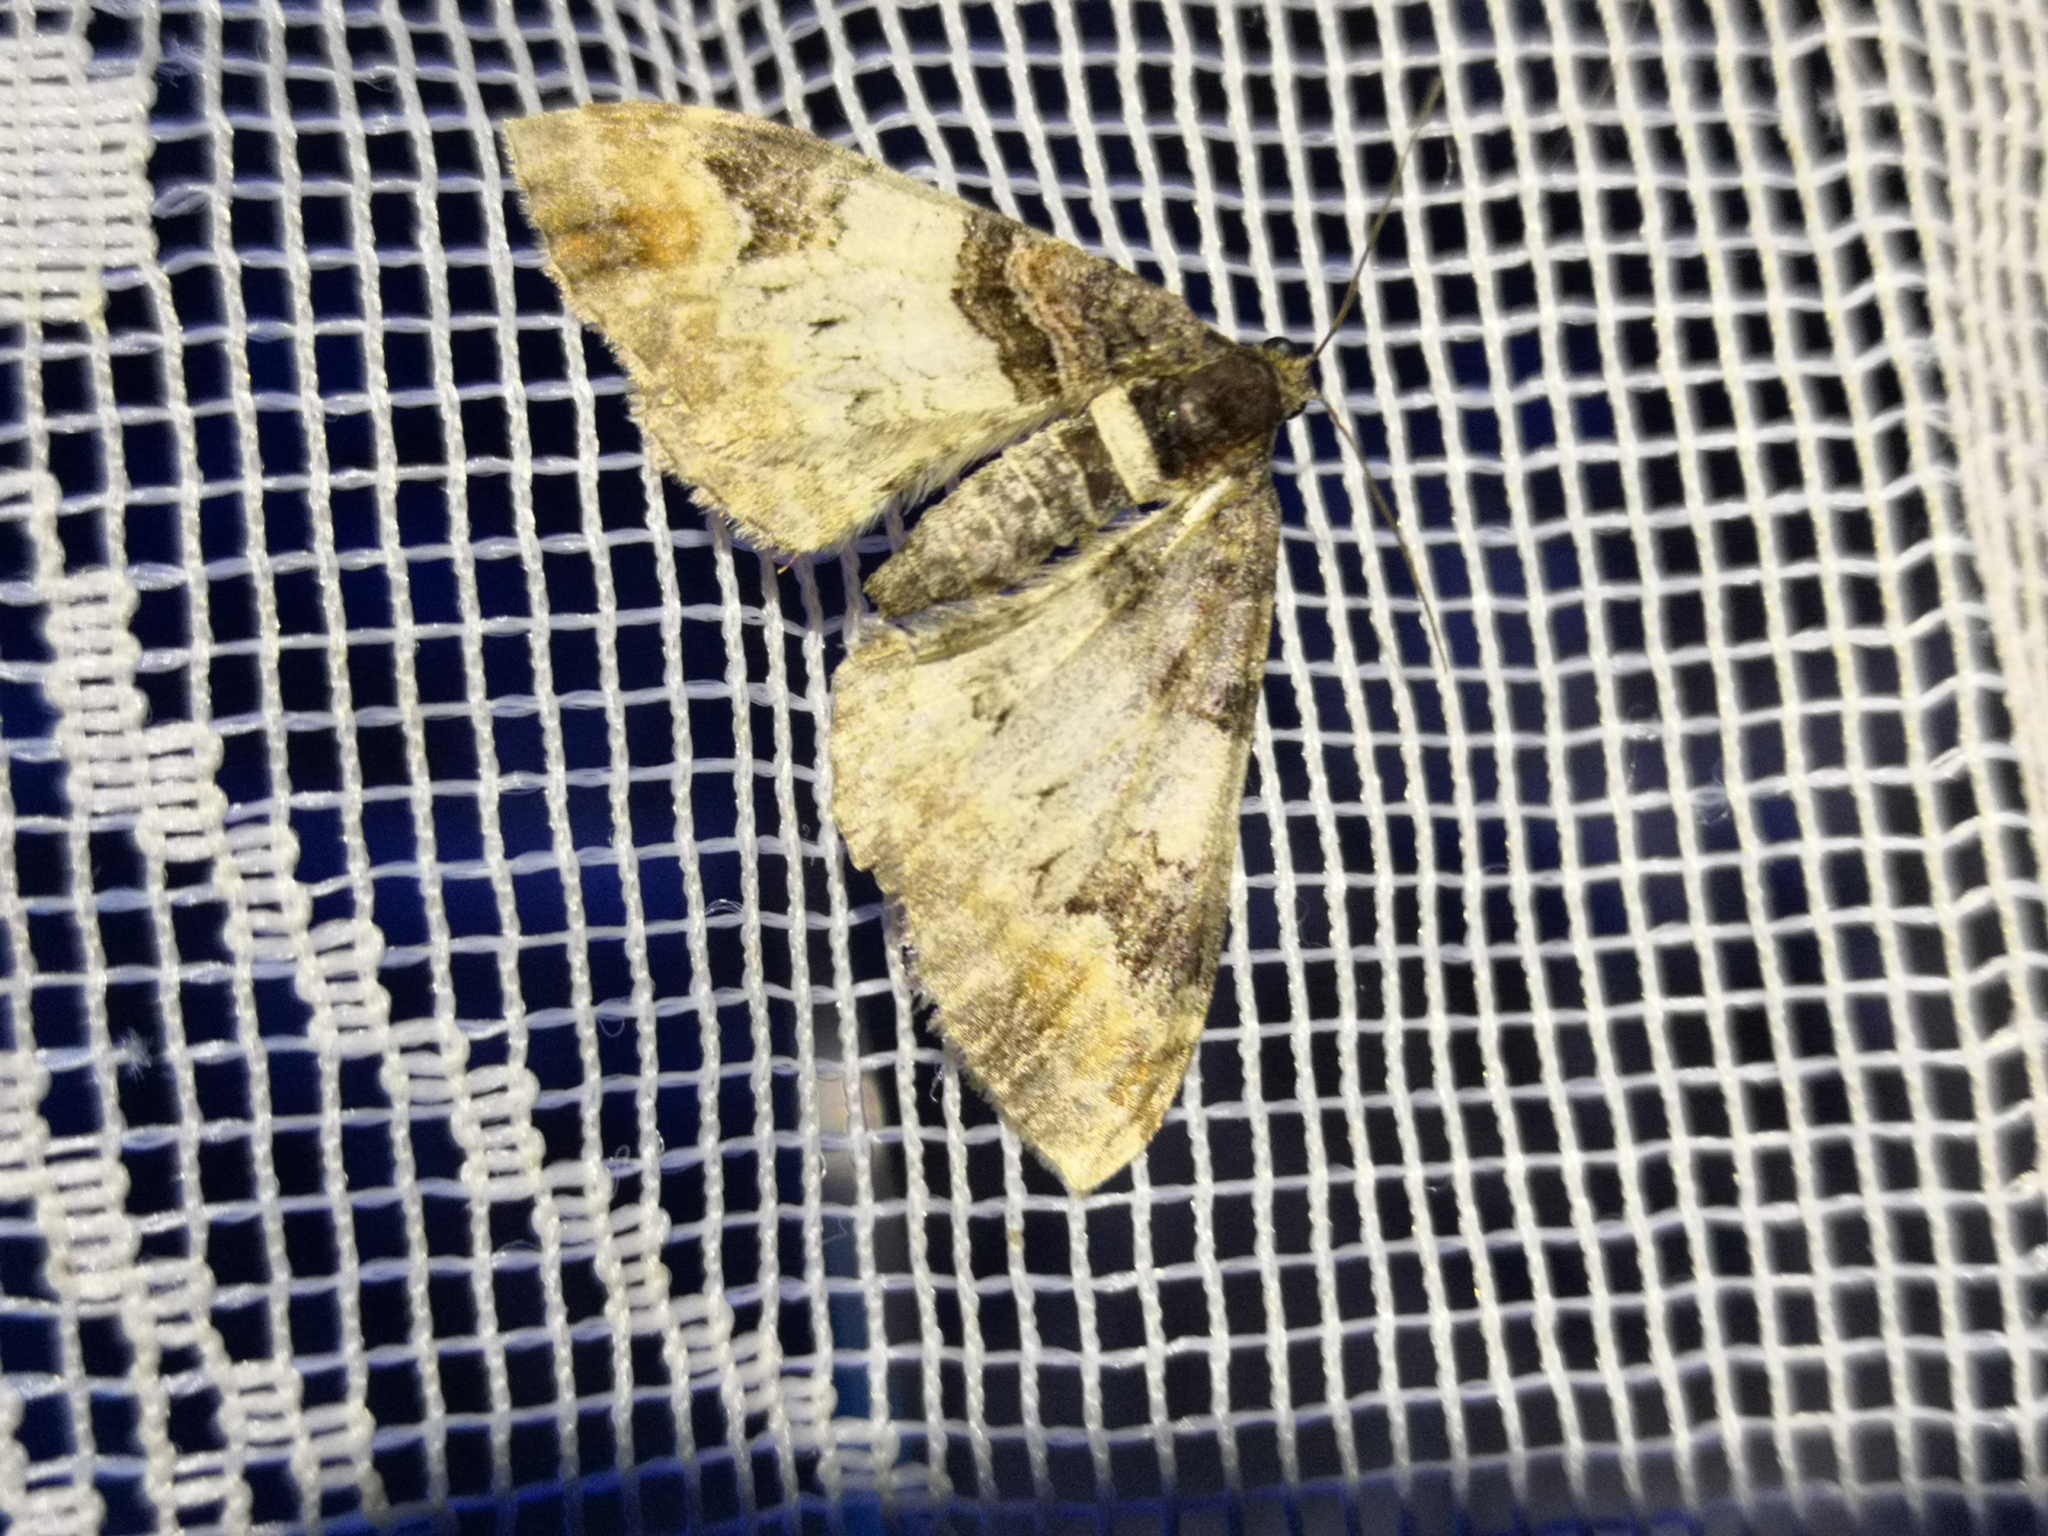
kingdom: Animalia
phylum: Arthropoda
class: Insecta
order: Lepidoptera
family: Geometridae
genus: Catarhoe
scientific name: Catarhoe cuculata
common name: Royal mantle
